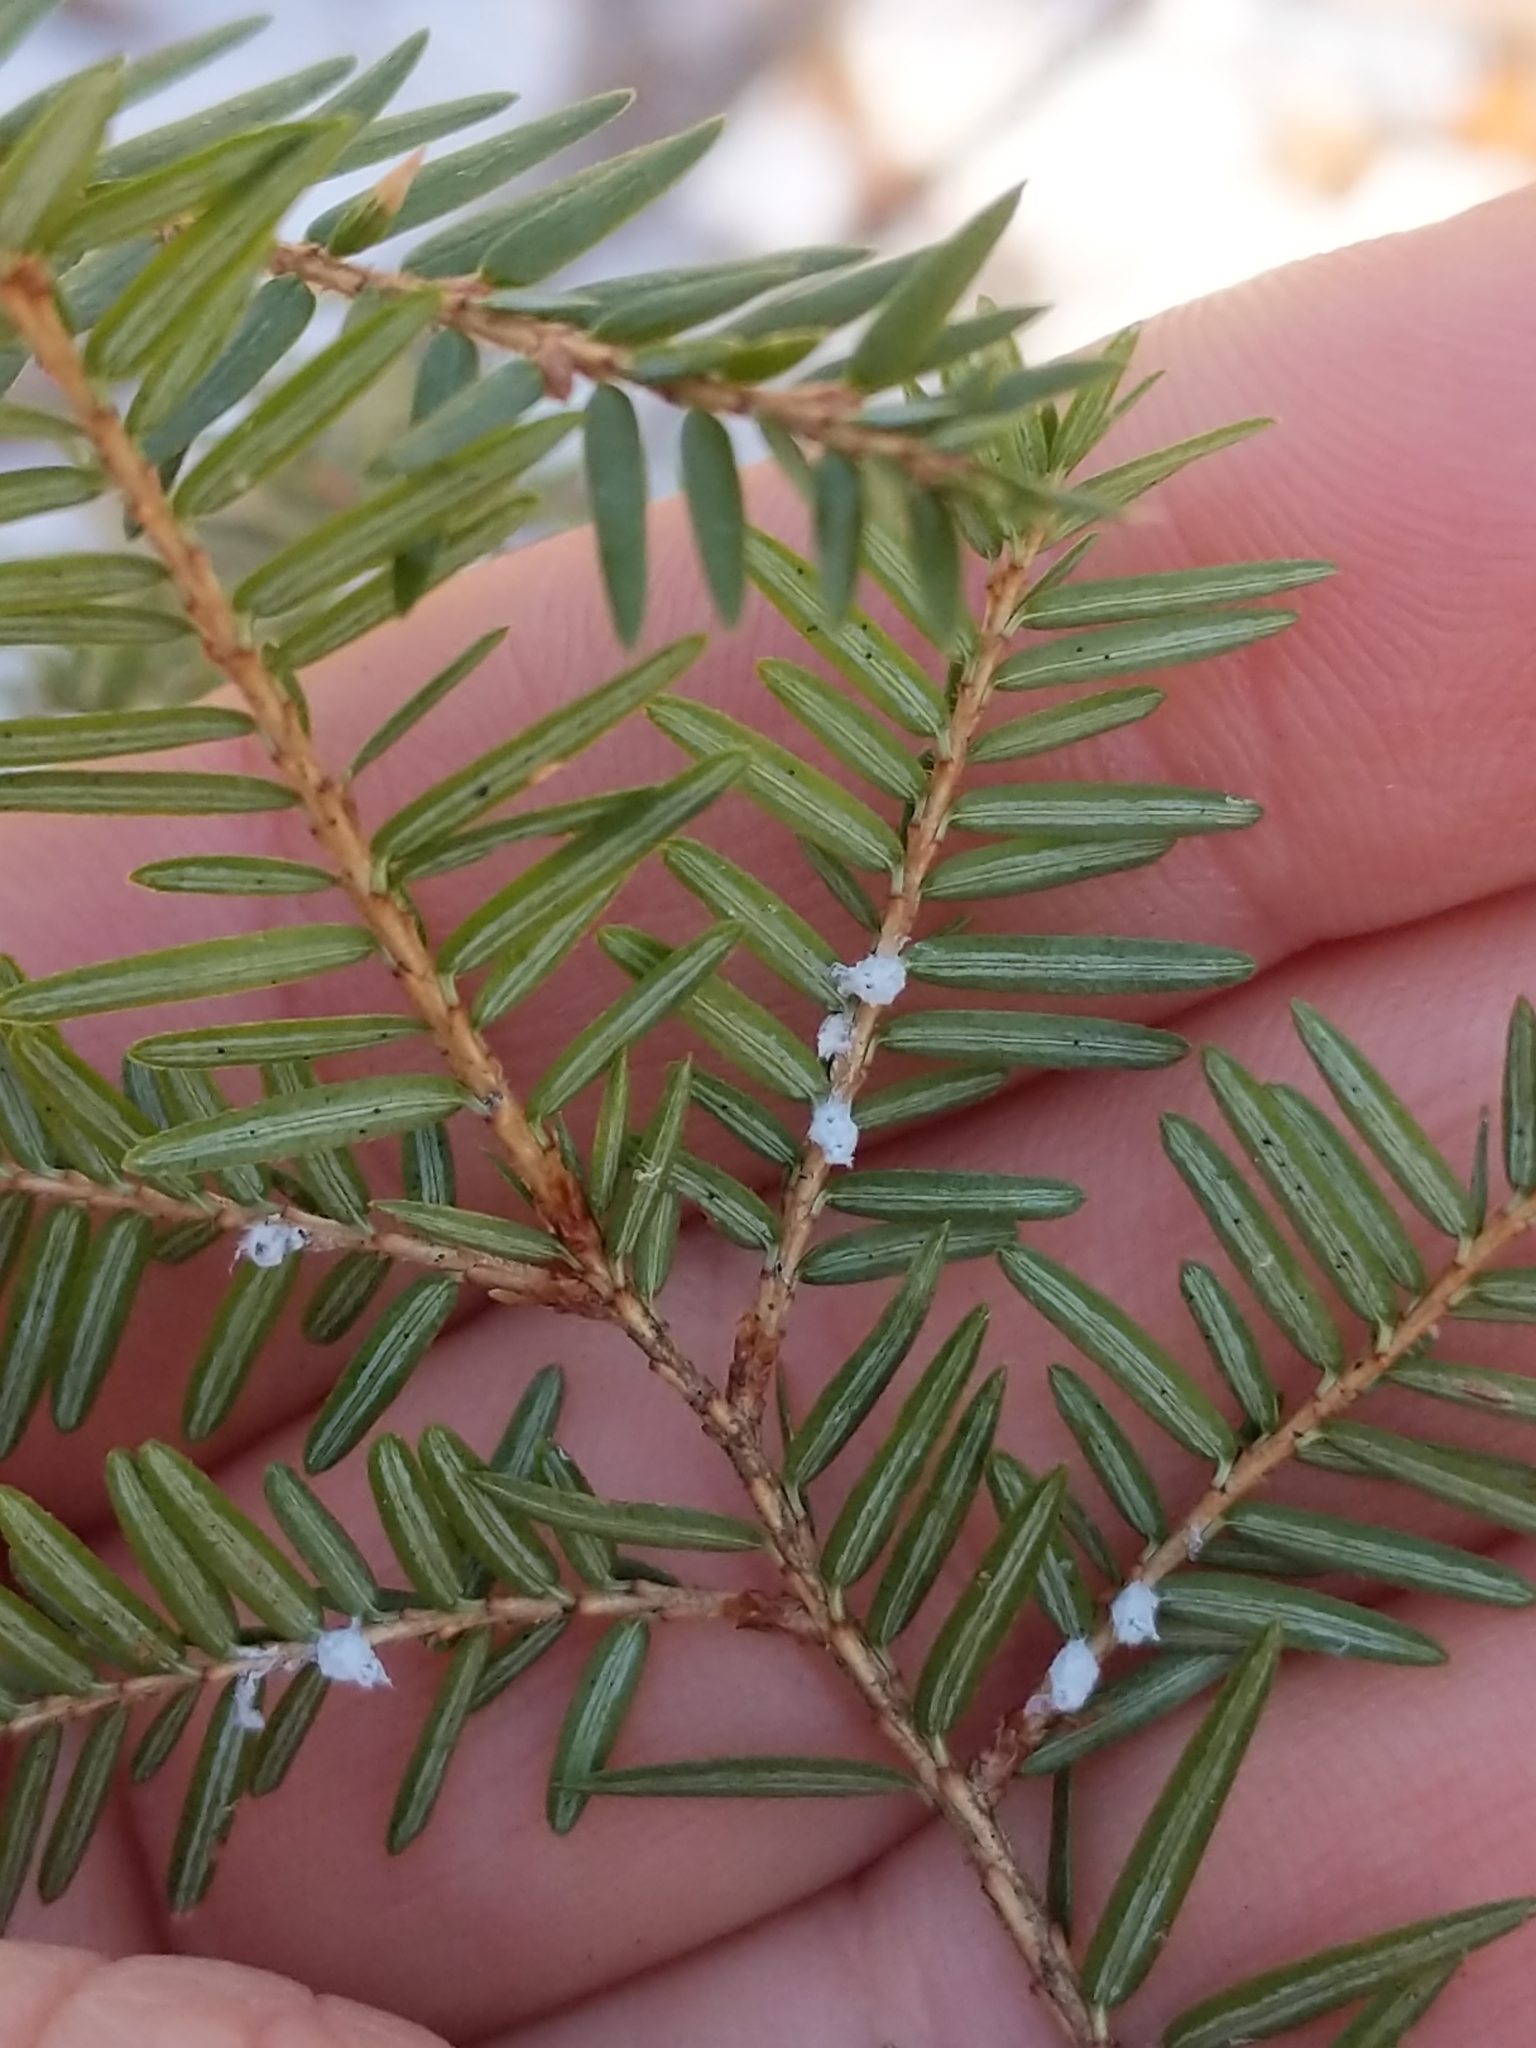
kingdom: Animalia
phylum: Arthropoda
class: Insecta
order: Hemiptera
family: Adelgidae
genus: Adelges
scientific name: Adelges tsugae
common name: Hemlock woolly adelgid
